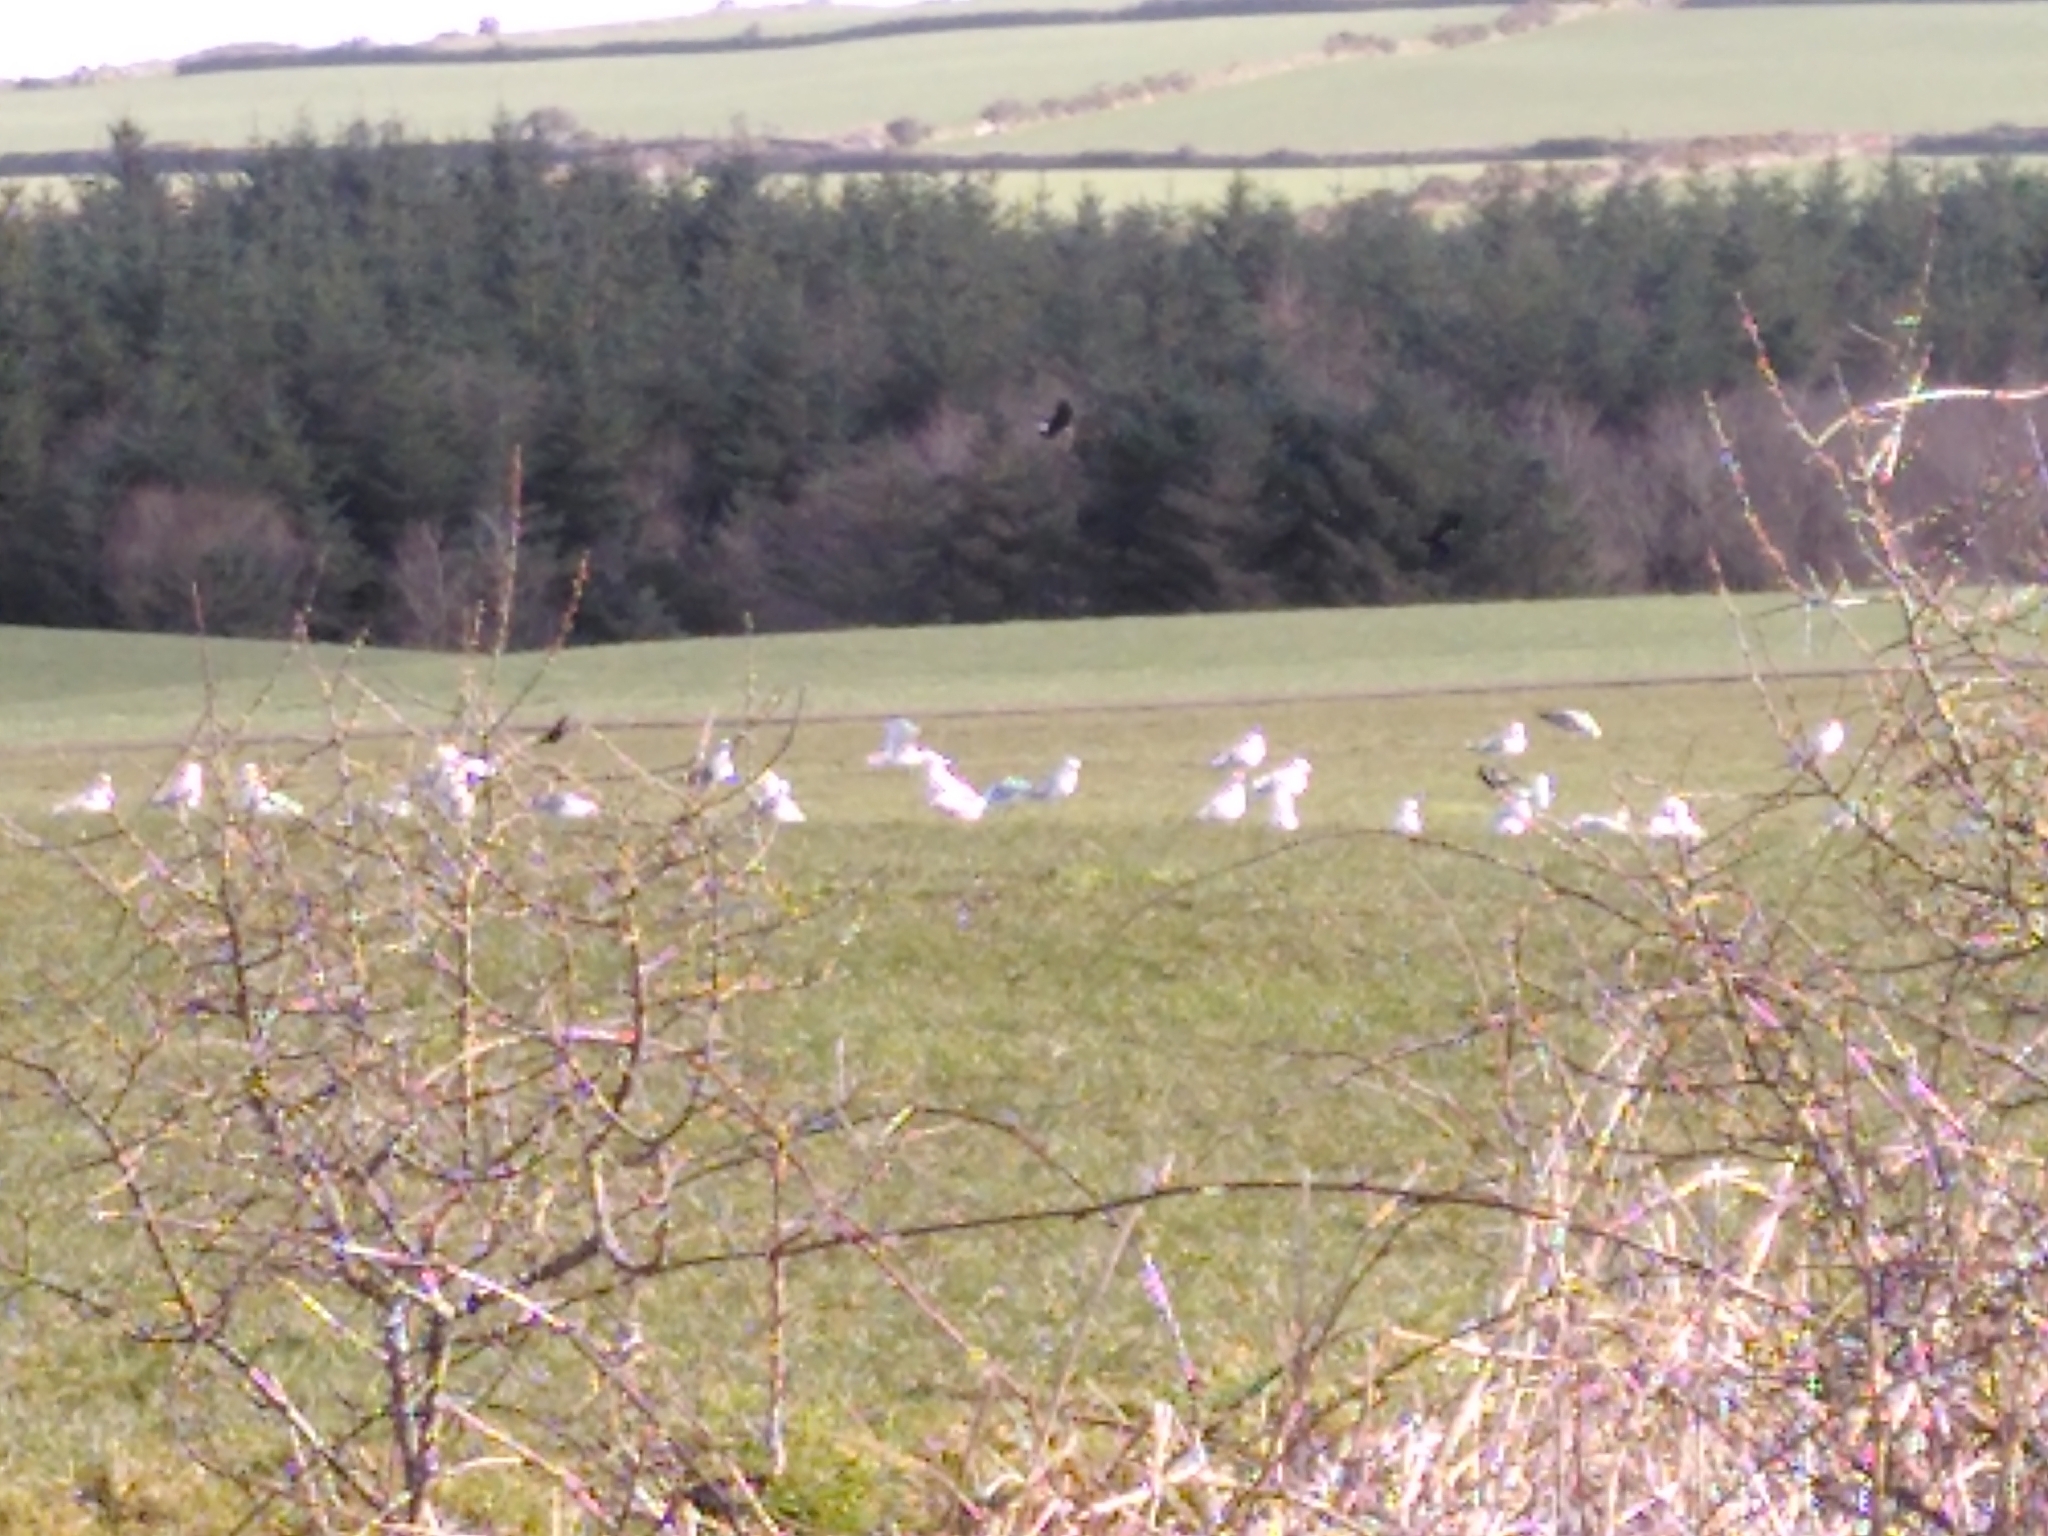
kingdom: Animalia
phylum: Chordata
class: Aves
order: Charadriiformes
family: Laridae
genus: Larus
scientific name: Larus argentatus
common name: Herring gull
